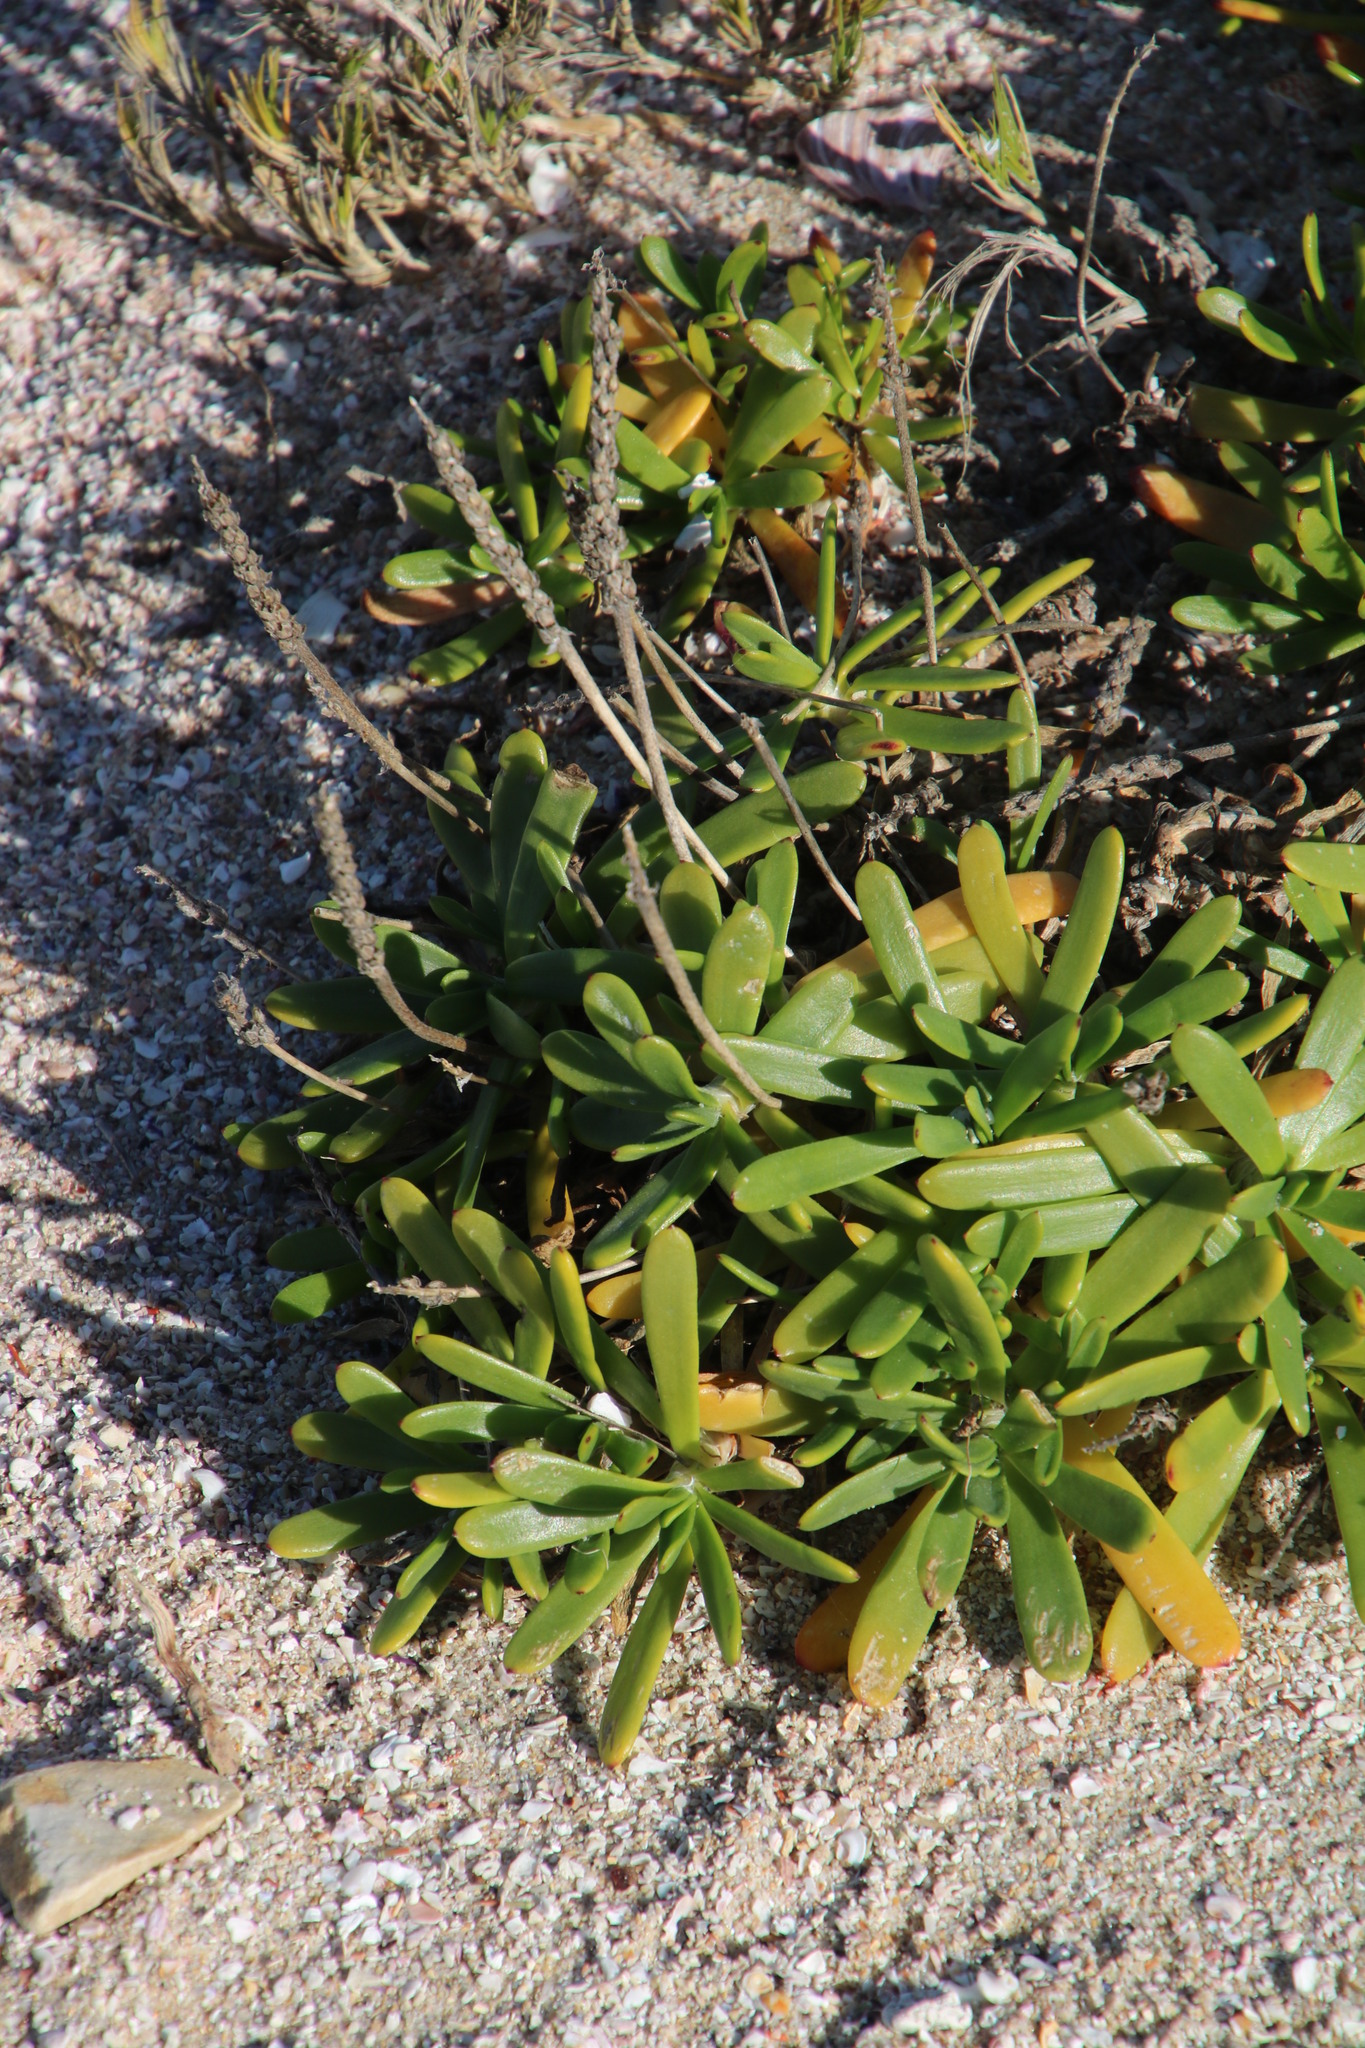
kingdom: Plantae
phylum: Tracheophyta
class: Magnoliopsida
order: Lamiales
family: Plantaginaceae
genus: Plantago
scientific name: Plantago carnosa
